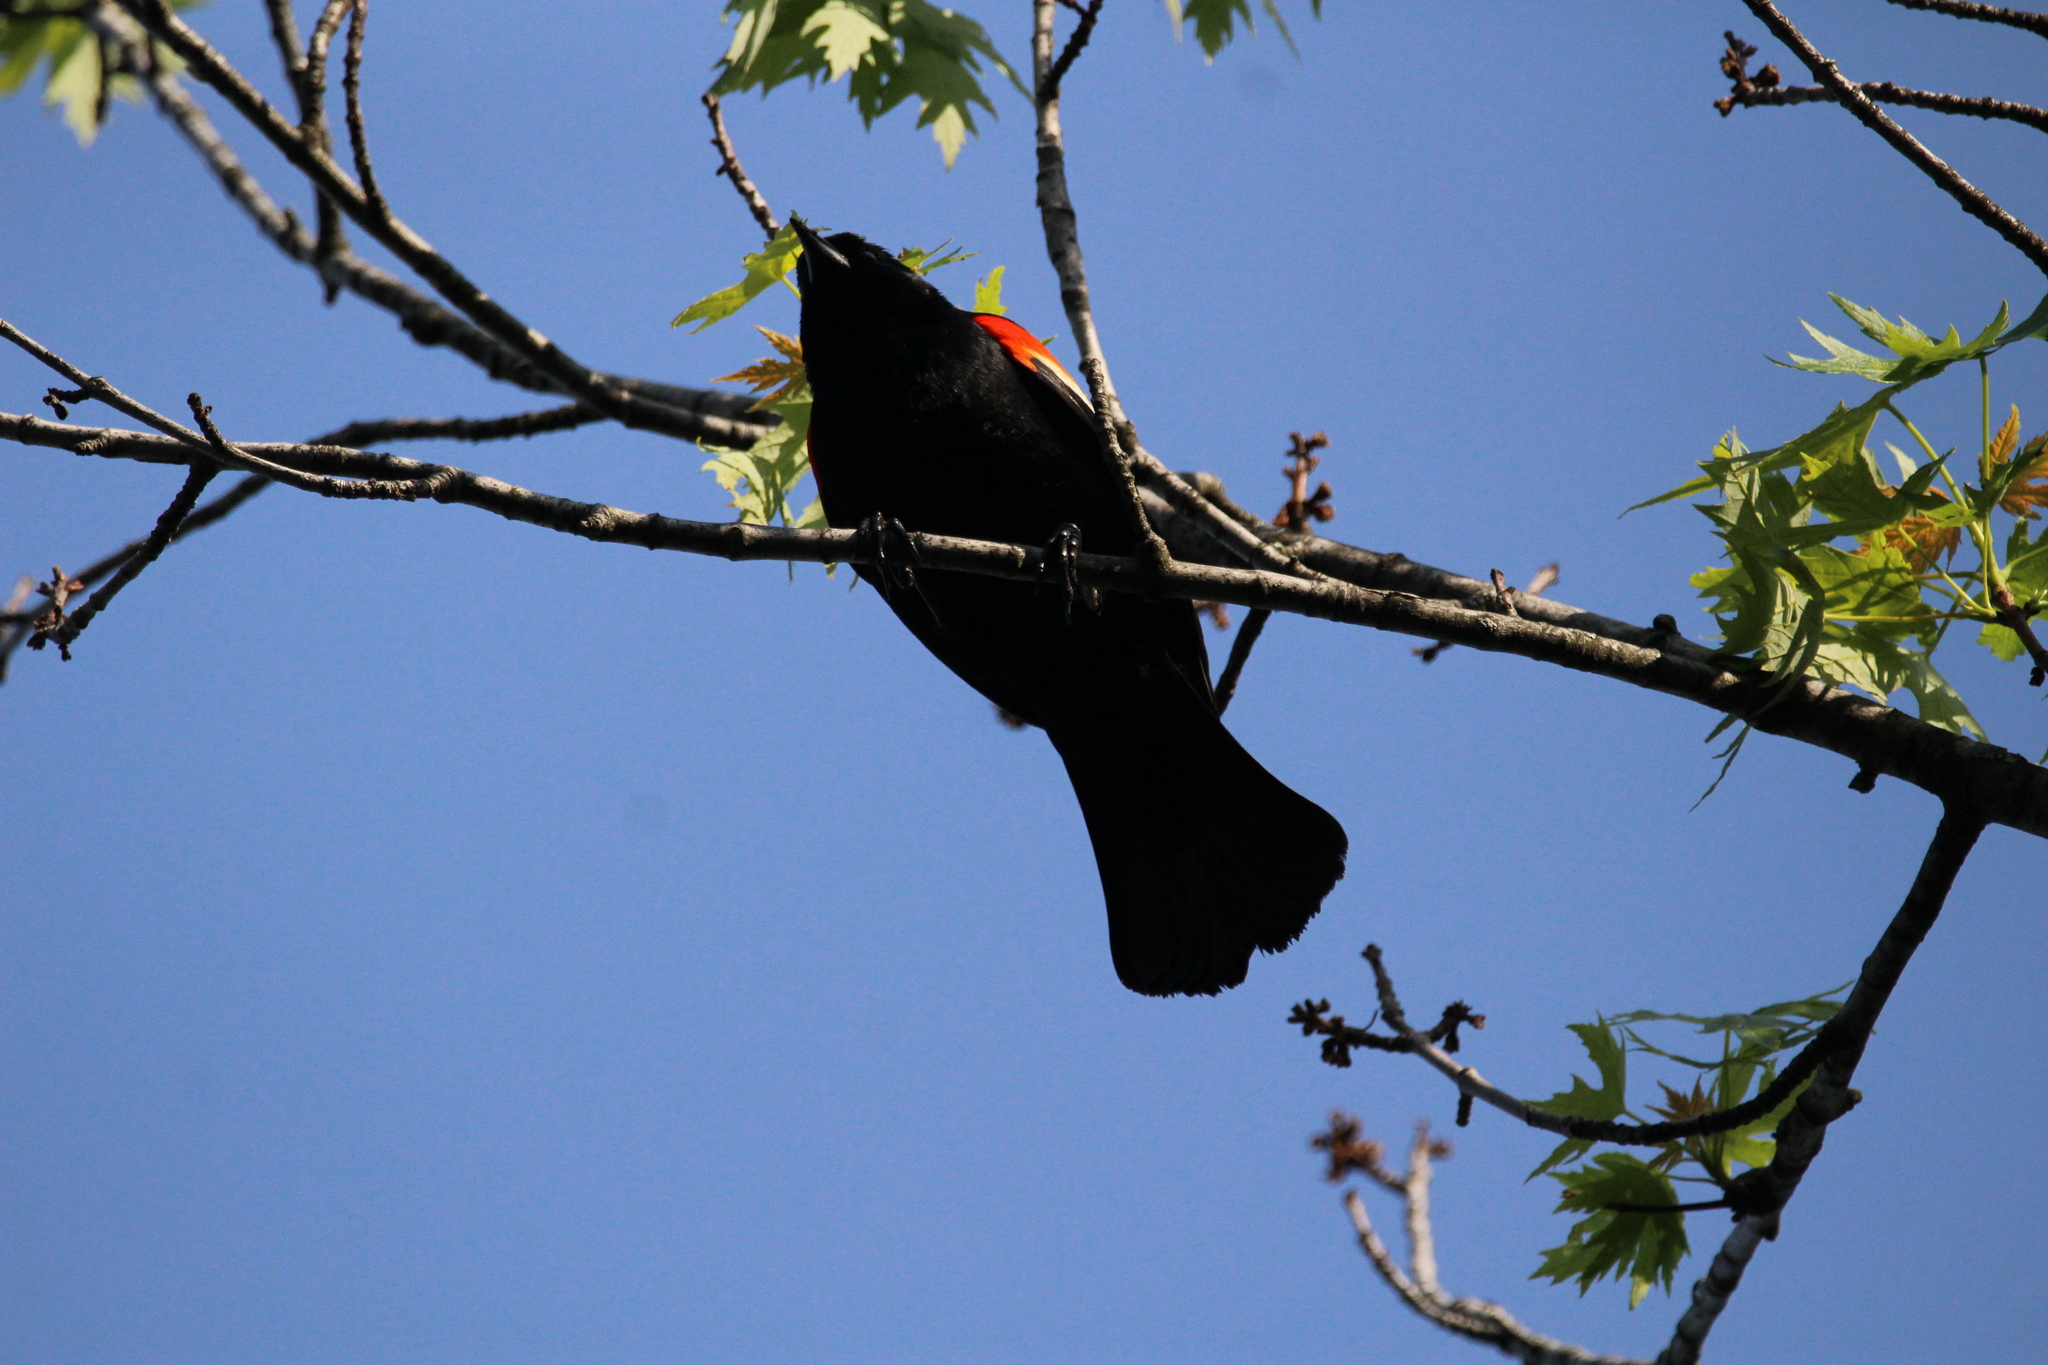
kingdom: Animalia
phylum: Chordata
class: Aves
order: Passeriformes
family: Icteridae
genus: Agelaius
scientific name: Agelaius phoeniceus
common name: Red-winged blackbird
